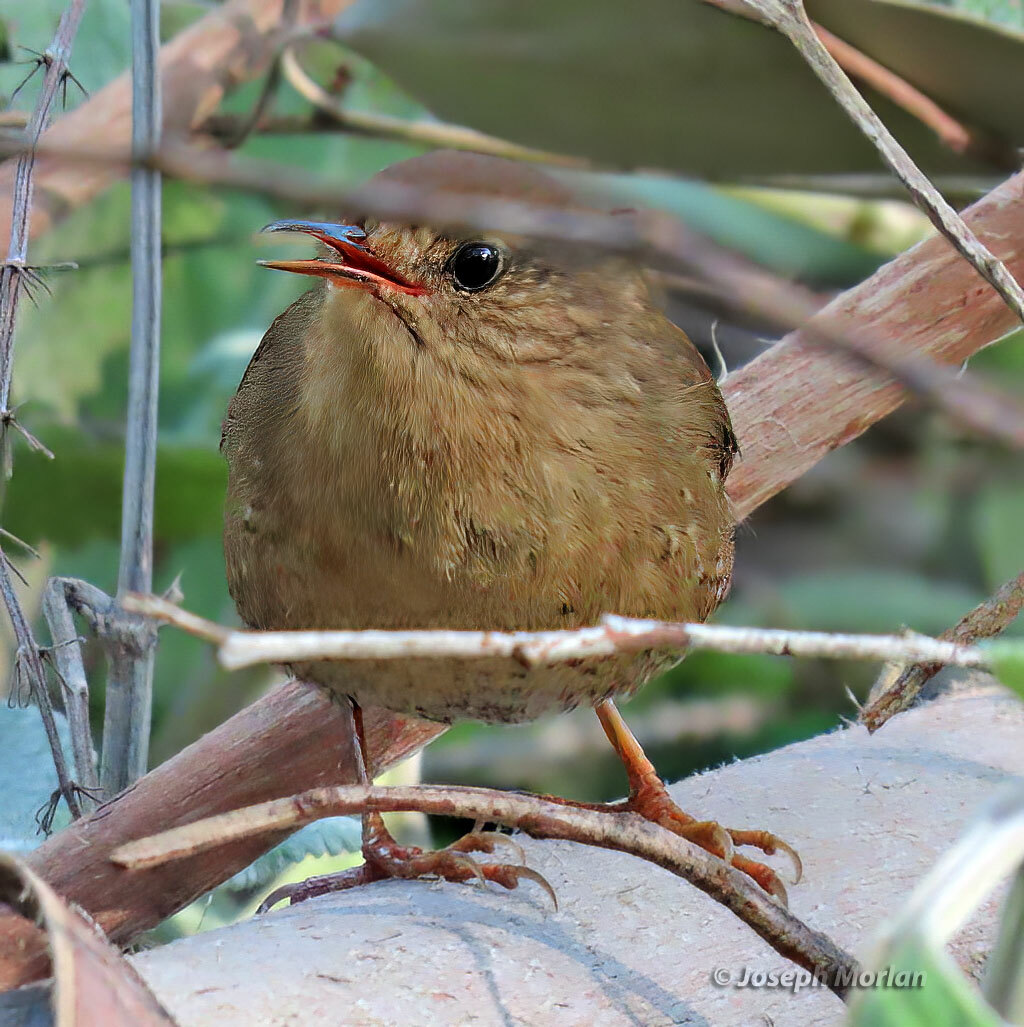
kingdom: Animalia
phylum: Chordata
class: Aves
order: Passeriformes
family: Troglodytidae
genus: Troglodytes
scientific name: Troglodytes pacificus
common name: Pacific wren
